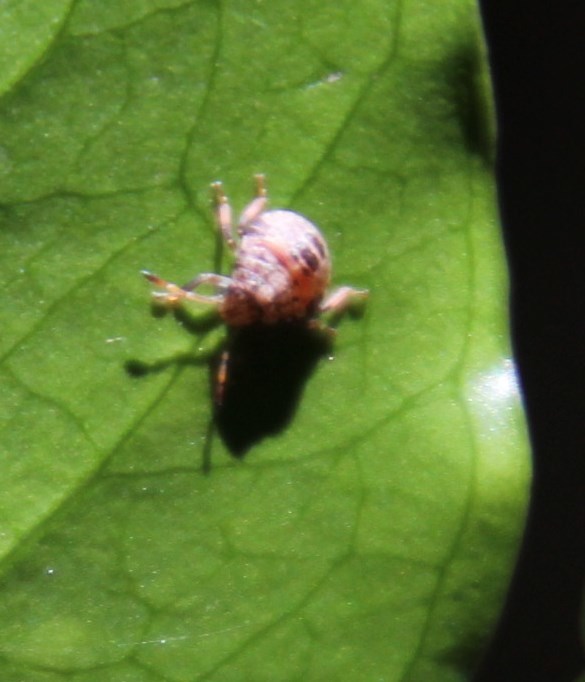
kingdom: Plantae
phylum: Tracheophyta
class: Magnoliopsida
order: Myrtales
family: Penaeaceae
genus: Olinia
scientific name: Olinia ventosa
